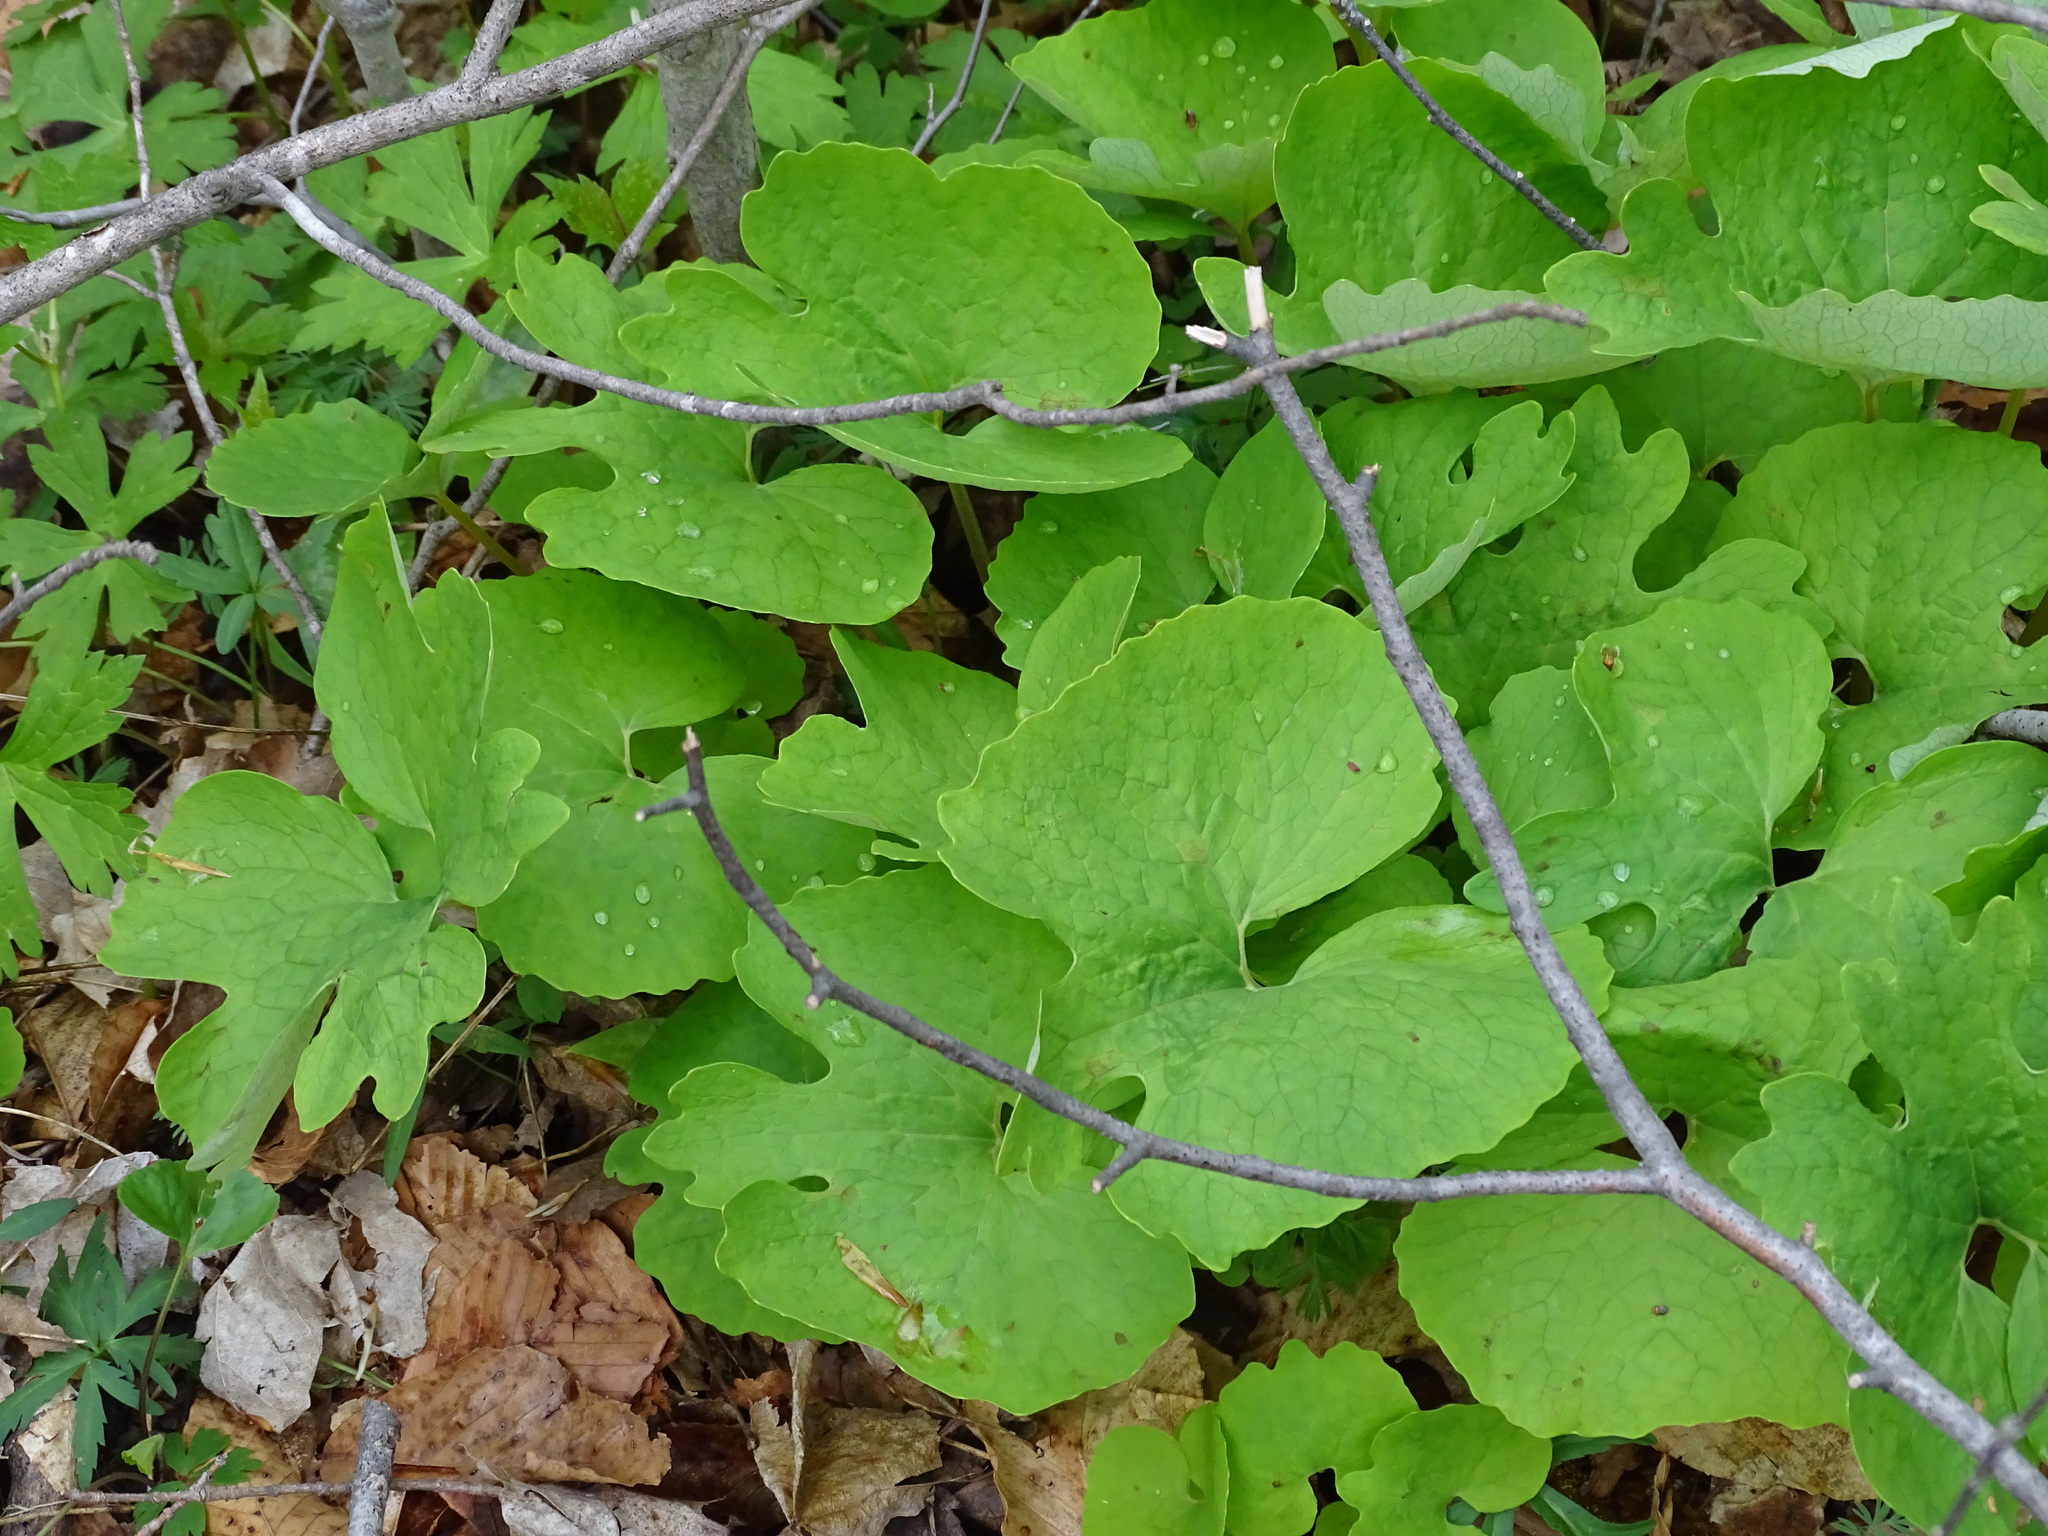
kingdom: Plantae
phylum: Tracheophyta
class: Magnoliopsida
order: Ranunculales
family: Papaveraceae
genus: Sanguinaria
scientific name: Sanguinaria canadensis
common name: Bloodroot
